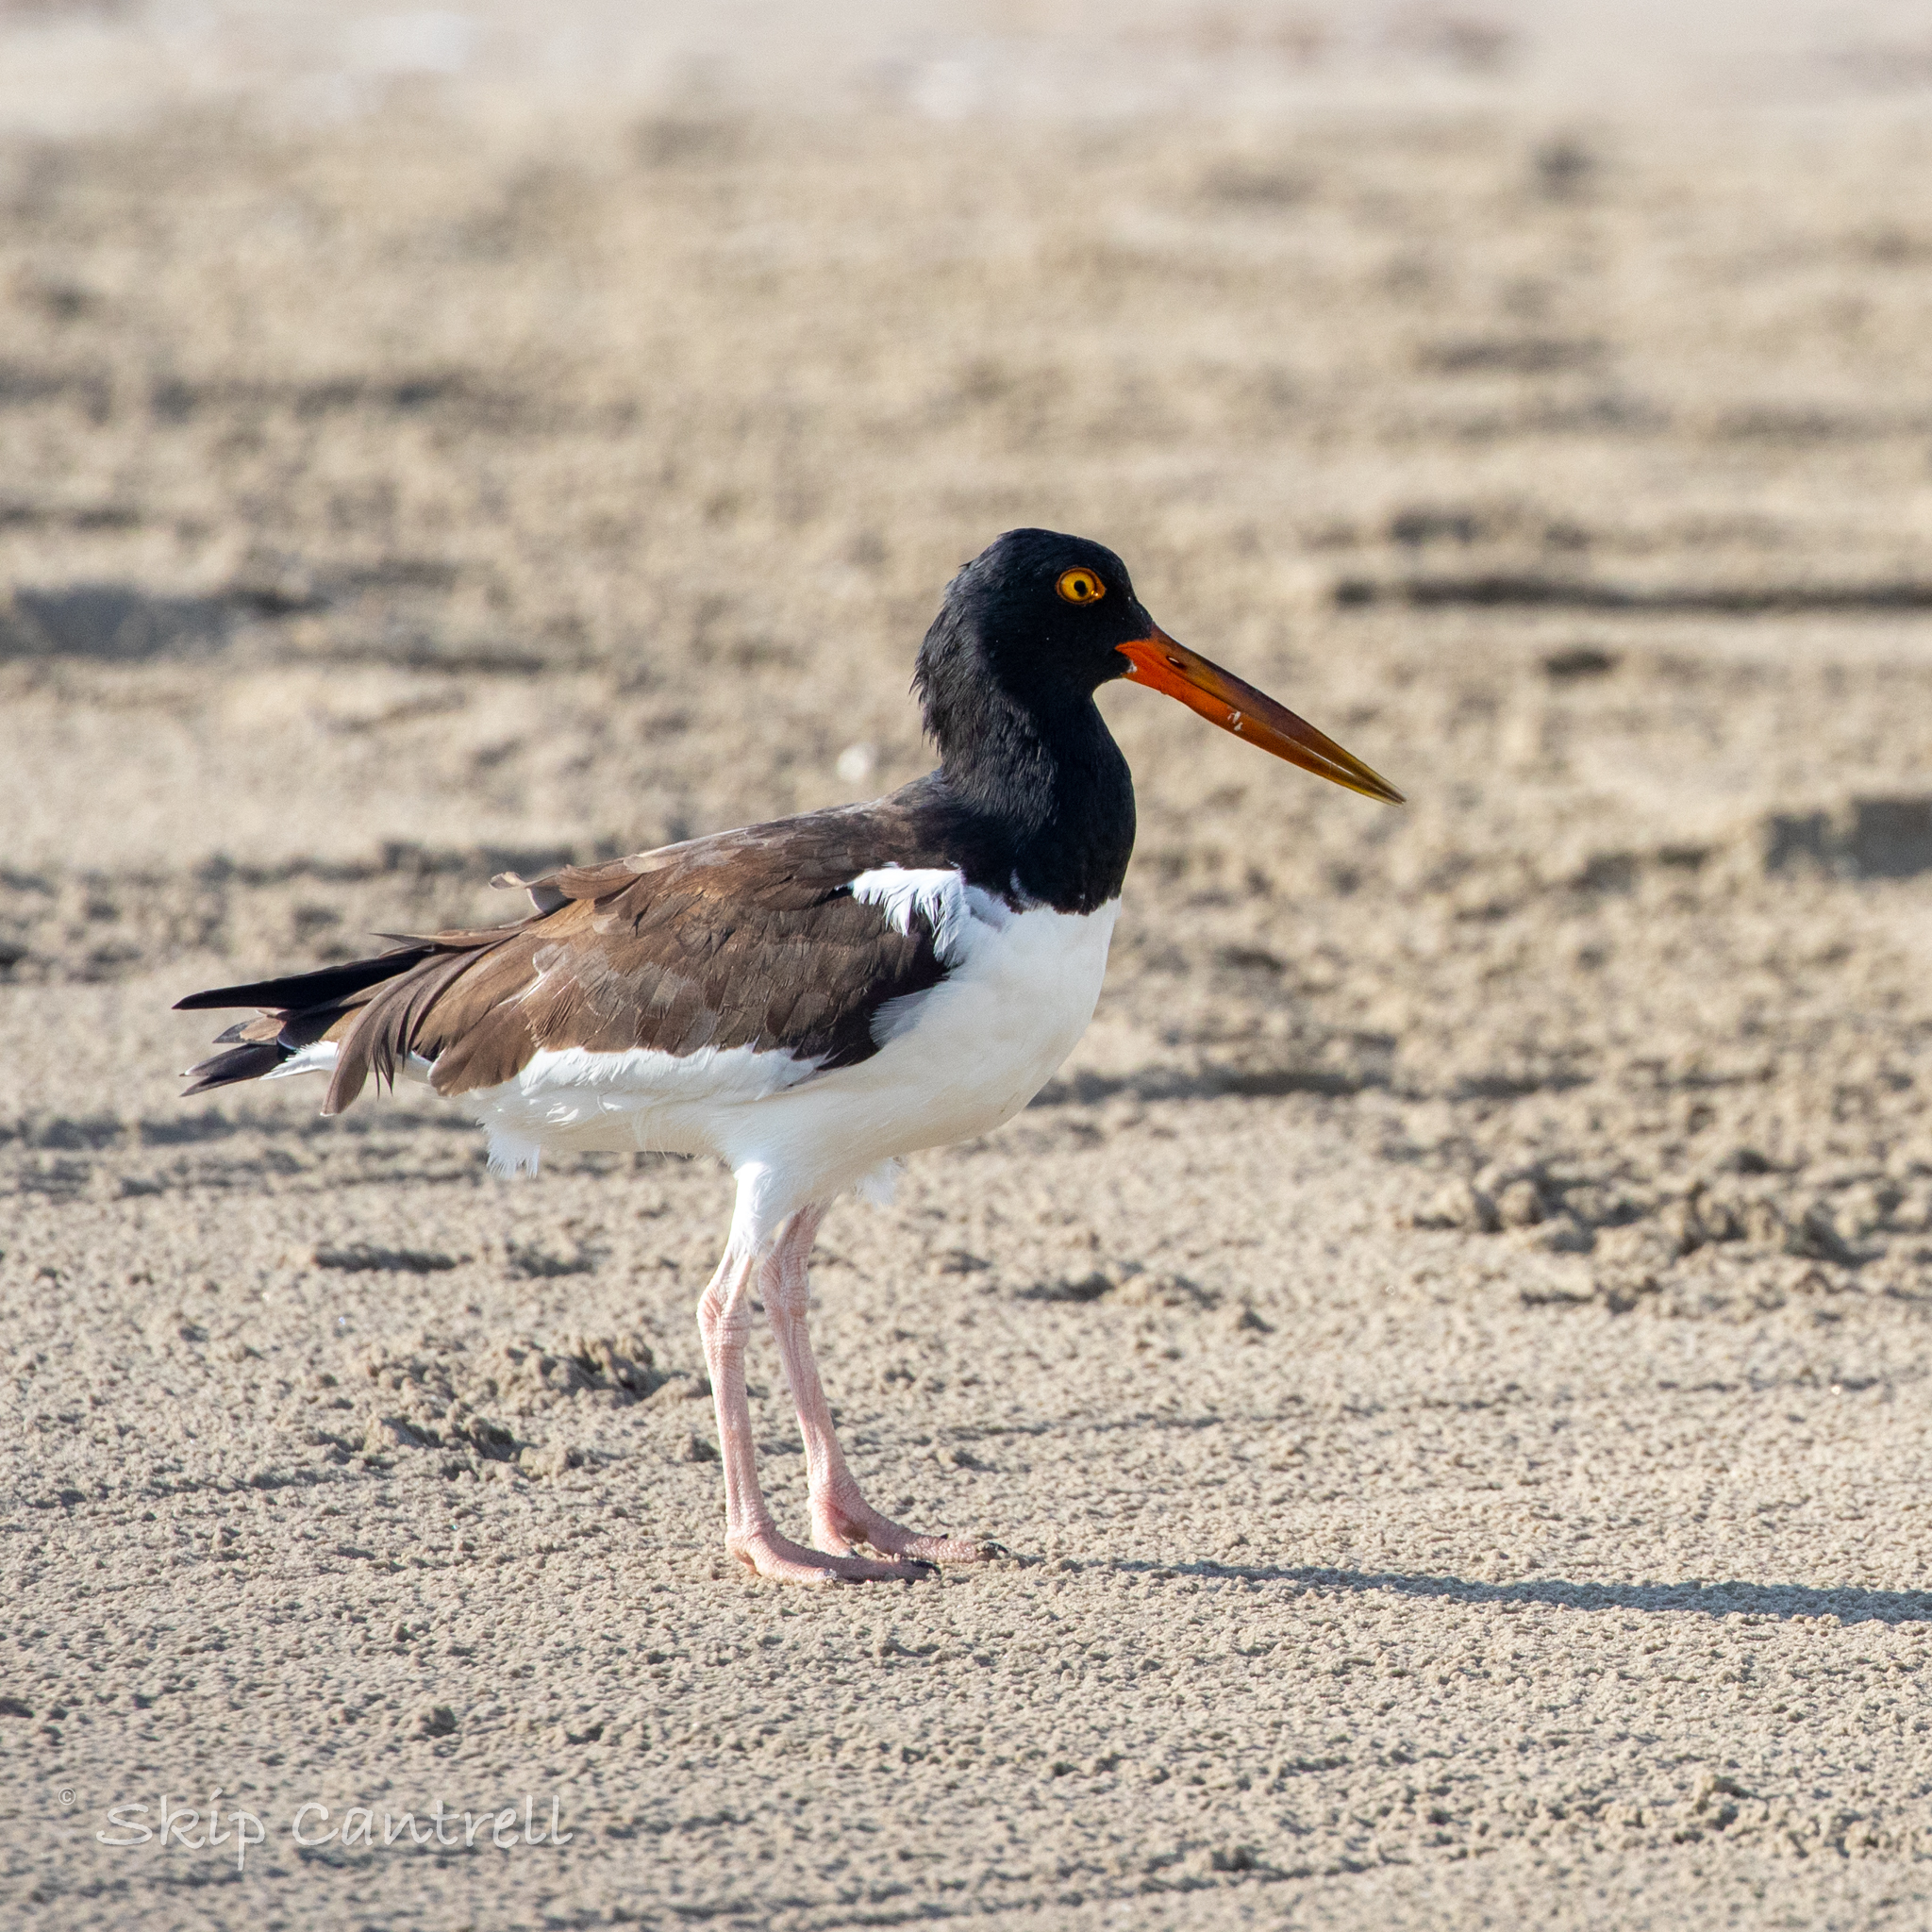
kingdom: Animalia
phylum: Chordata
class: Aves
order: Charadriiformes
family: Haematopodidae
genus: Haematopus
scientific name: Haematopus palliatus
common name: American oystercatcher
